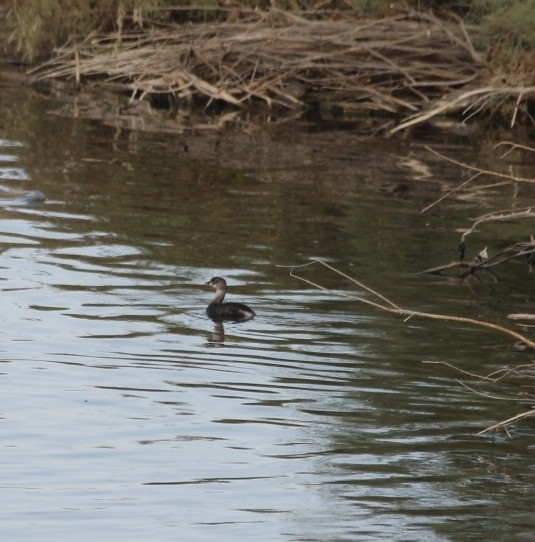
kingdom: Animalia
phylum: Chordata
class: Aves
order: Podicipediformes
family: Podicipedidae
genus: Podilymbus
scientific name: Podilymbus podiceps
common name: Pied-billed grebe
